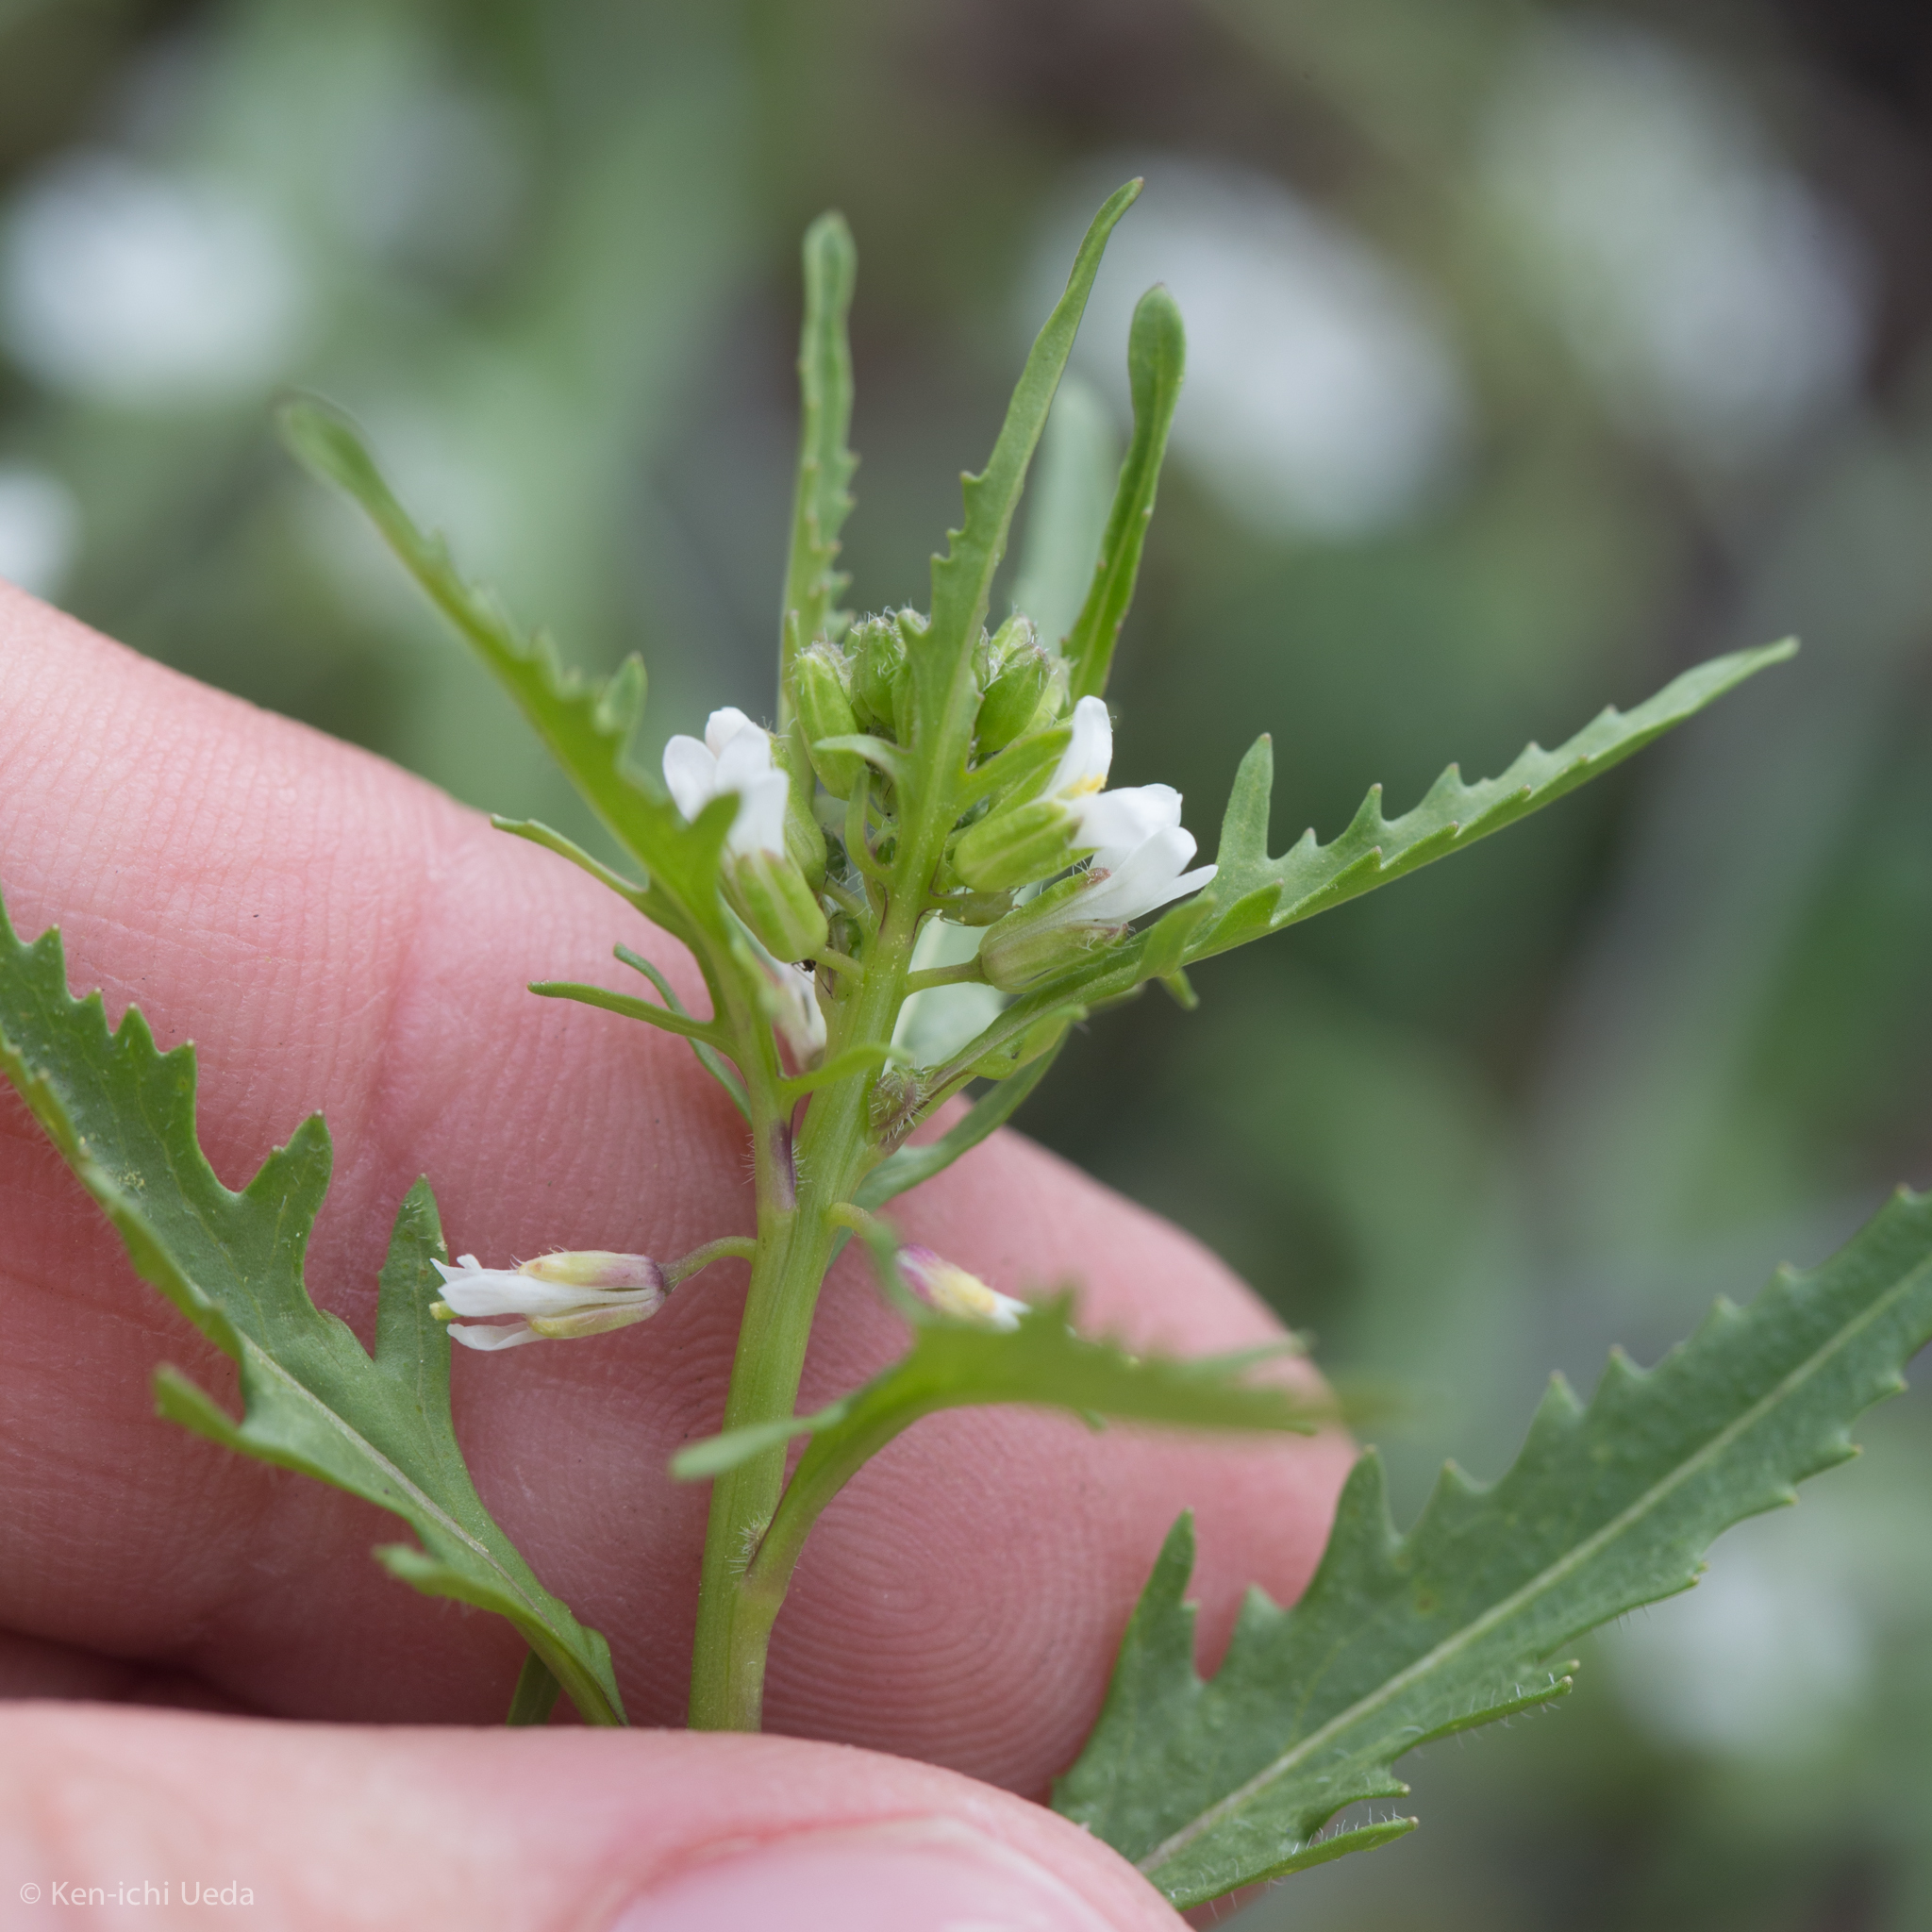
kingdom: Plantae
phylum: Tracheophyta
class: Magnoliopsida
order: Brassicales
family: Brassicaceae
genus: Streptanthus
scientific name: Streptanthus lasiophyllus
